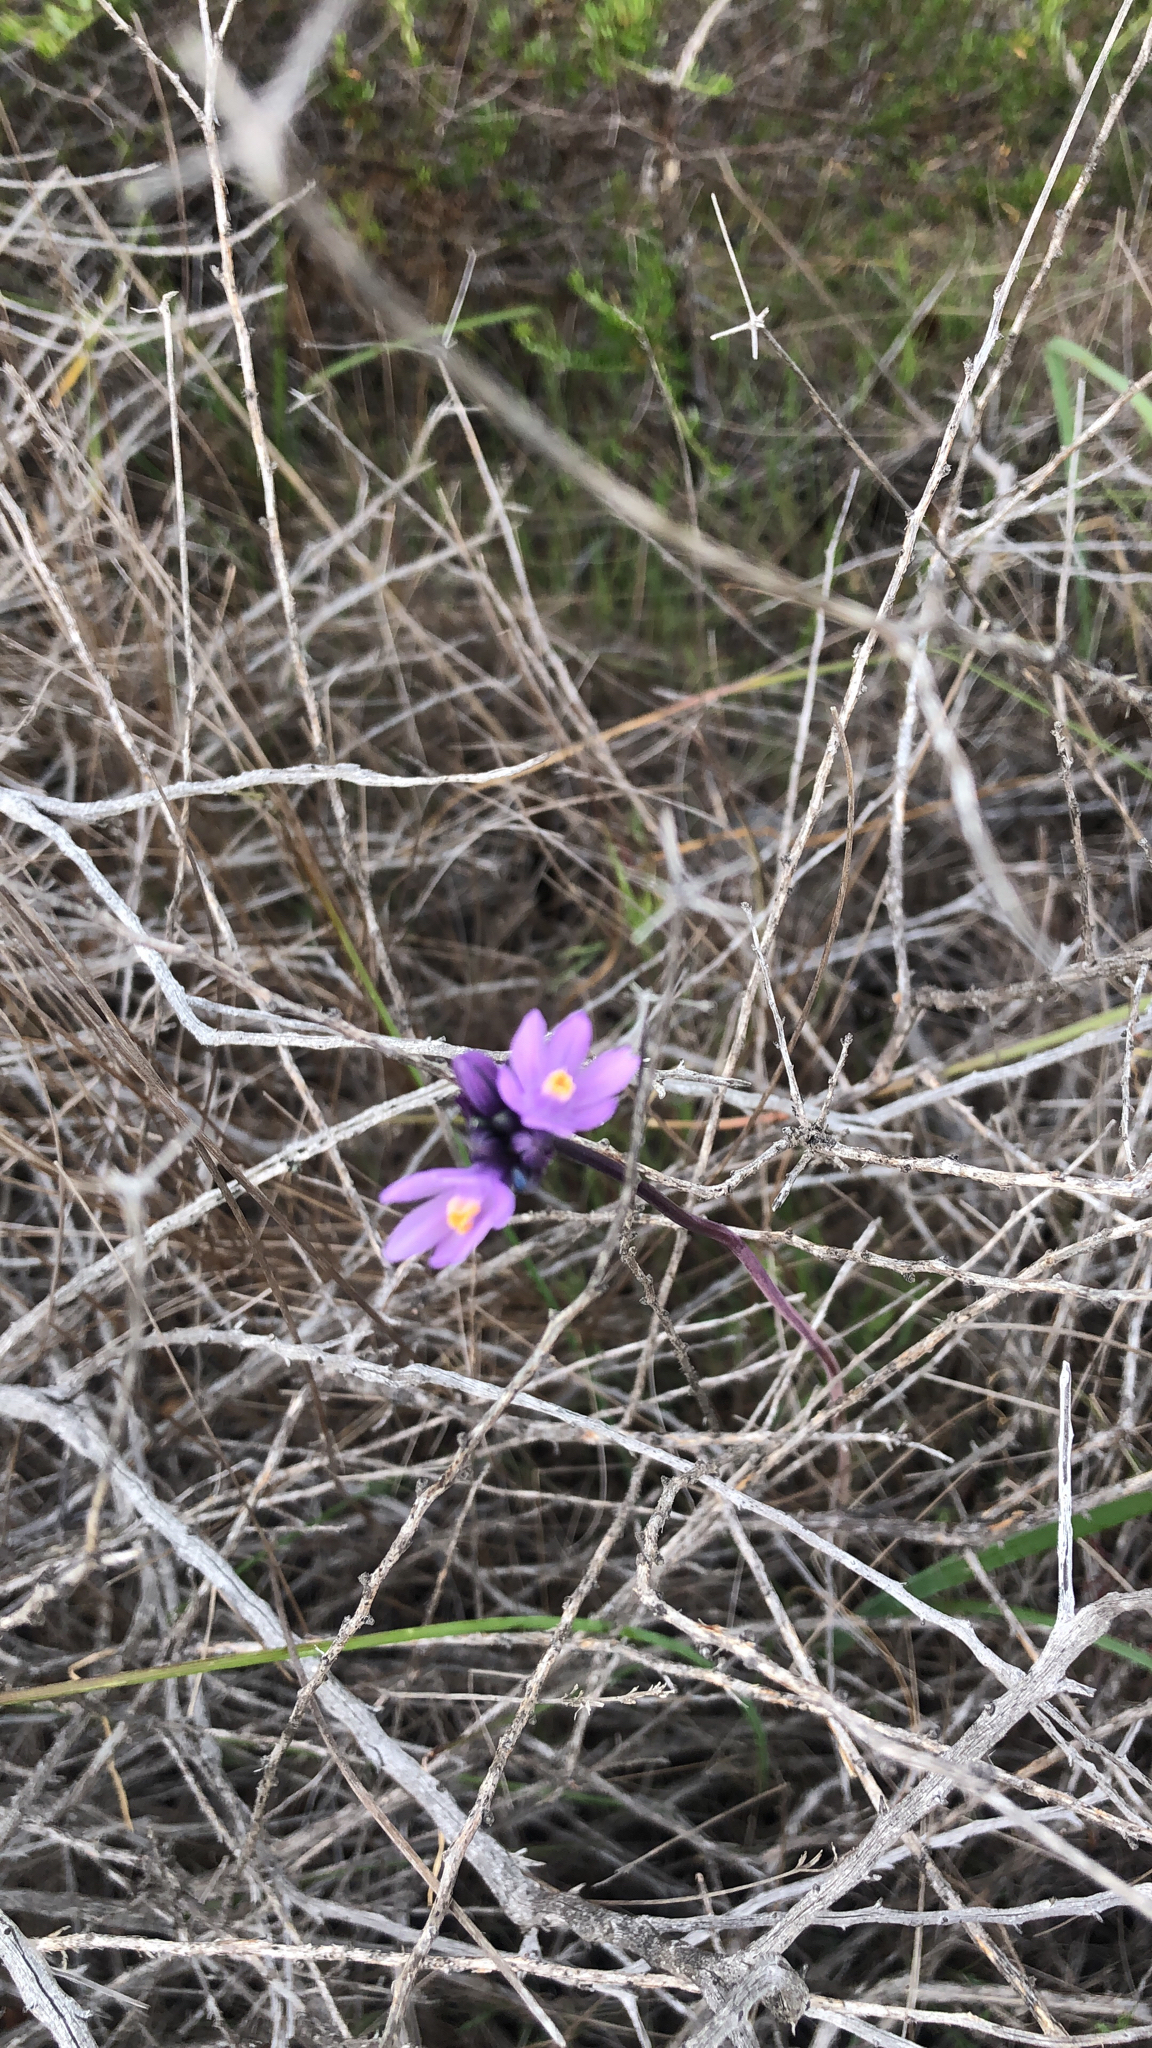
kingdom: Plantae
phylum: Tracheophyta
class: Liliopsida
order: Asparagales
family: Asparagaceae
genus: Dipterostemon
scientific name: Dipterostemon capitatus
